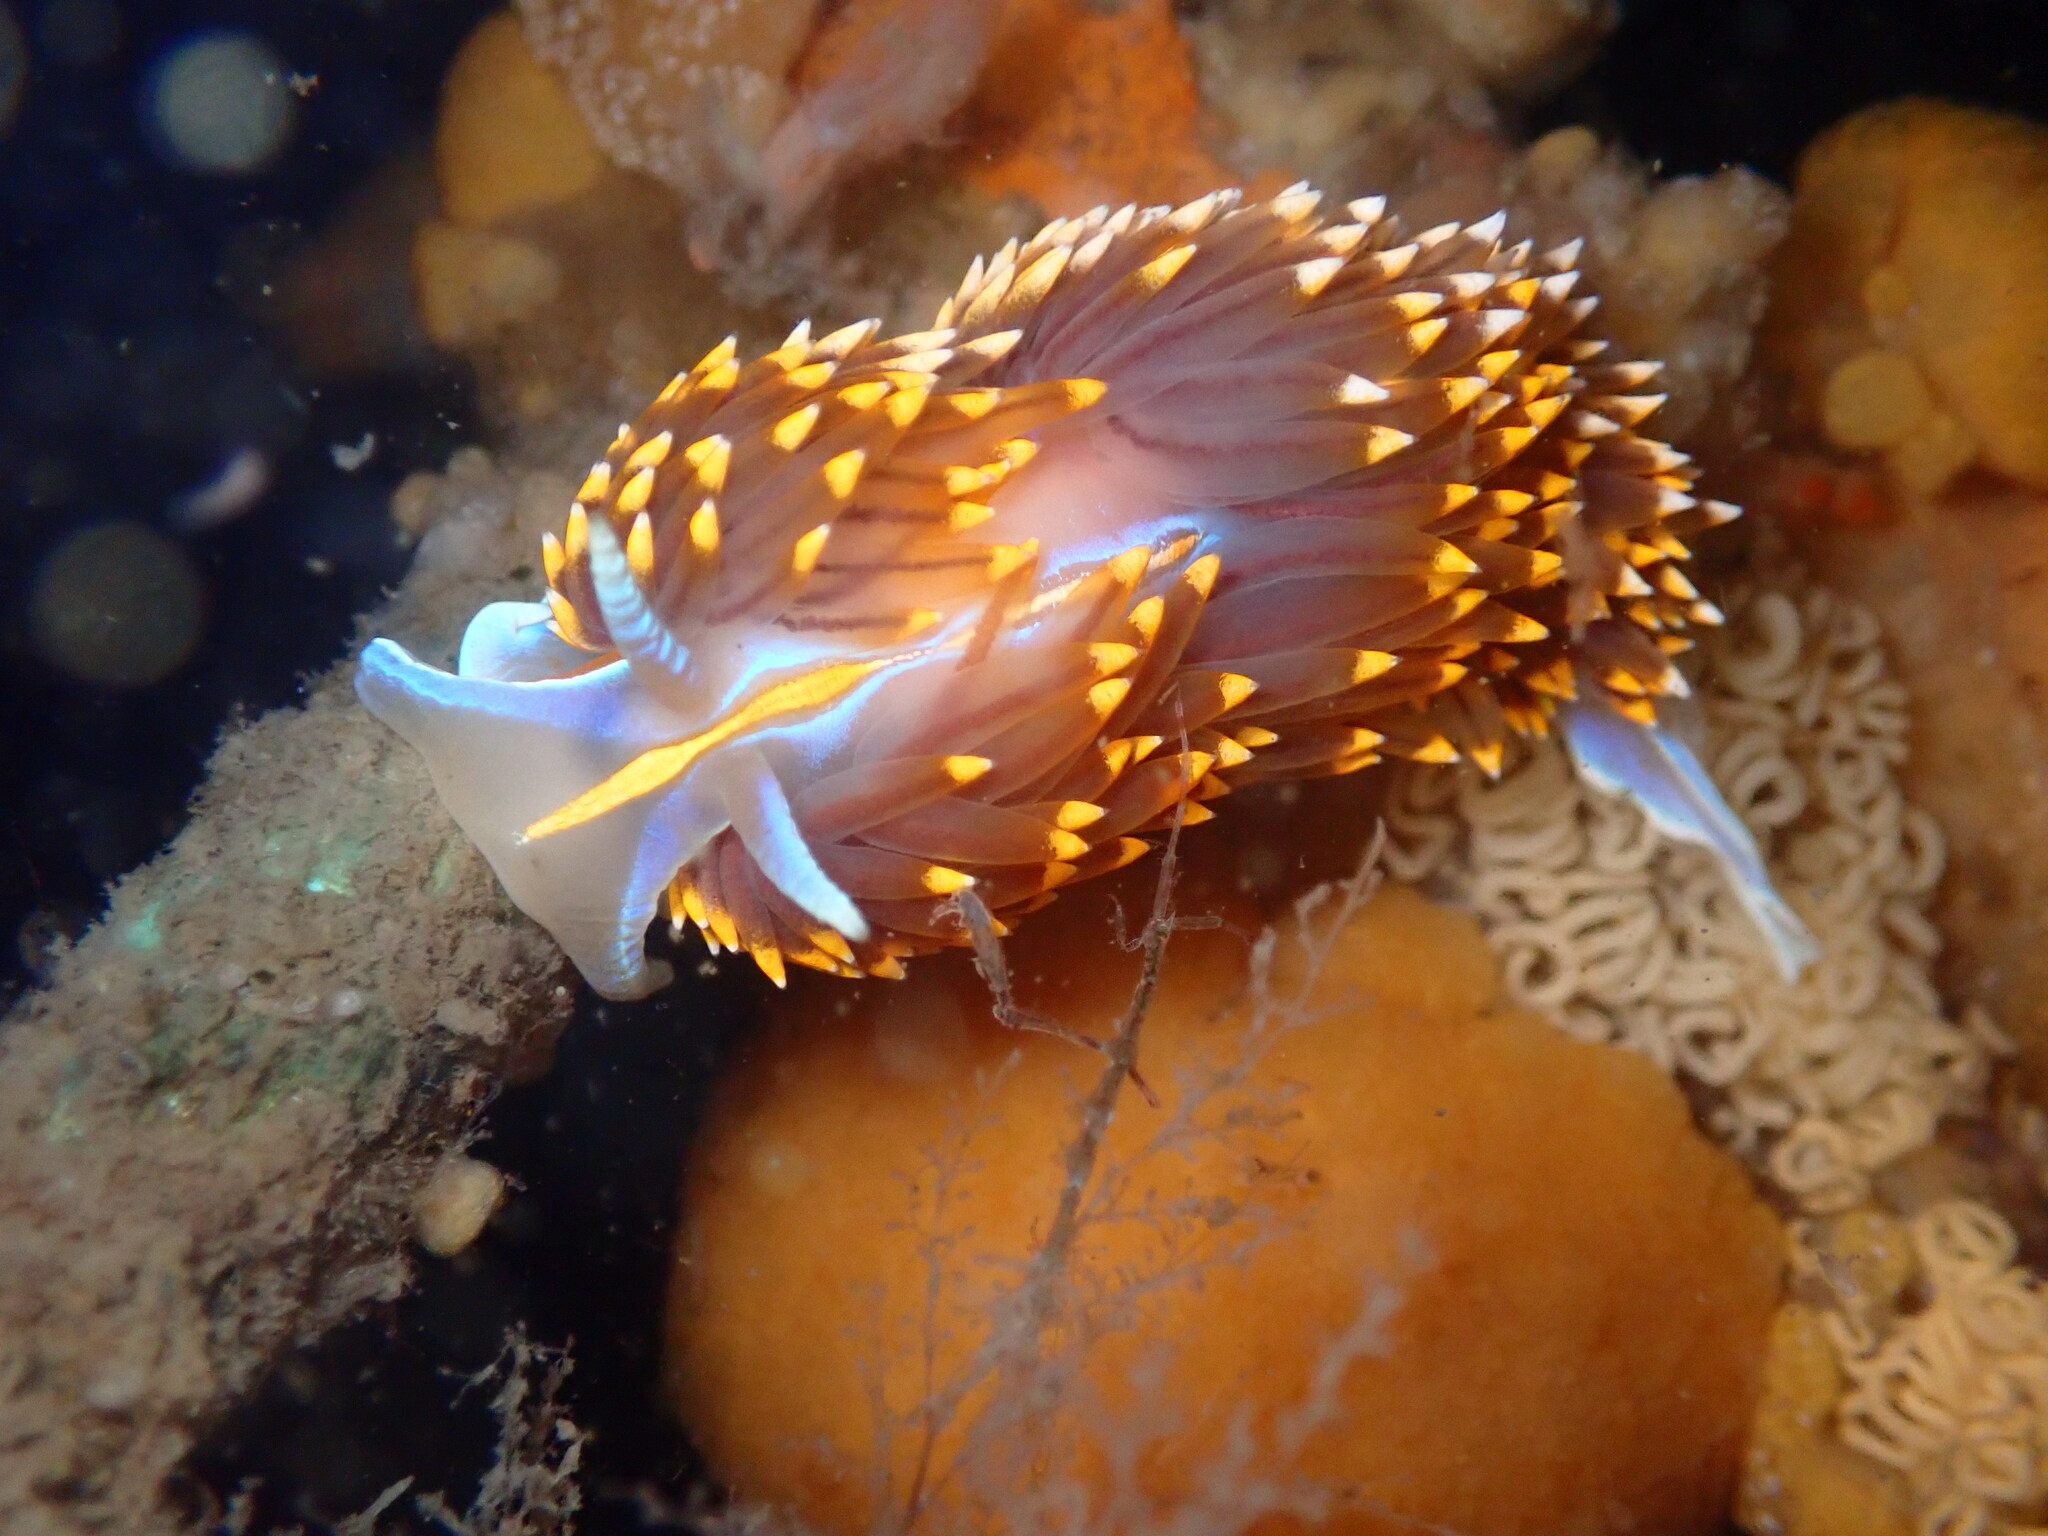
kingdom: Animalia
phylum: Mollusca
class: Gastropoda
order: Nudibranchia
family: Myrrhinidae
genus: Hermissenda
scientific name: Hermissenda opalescens
